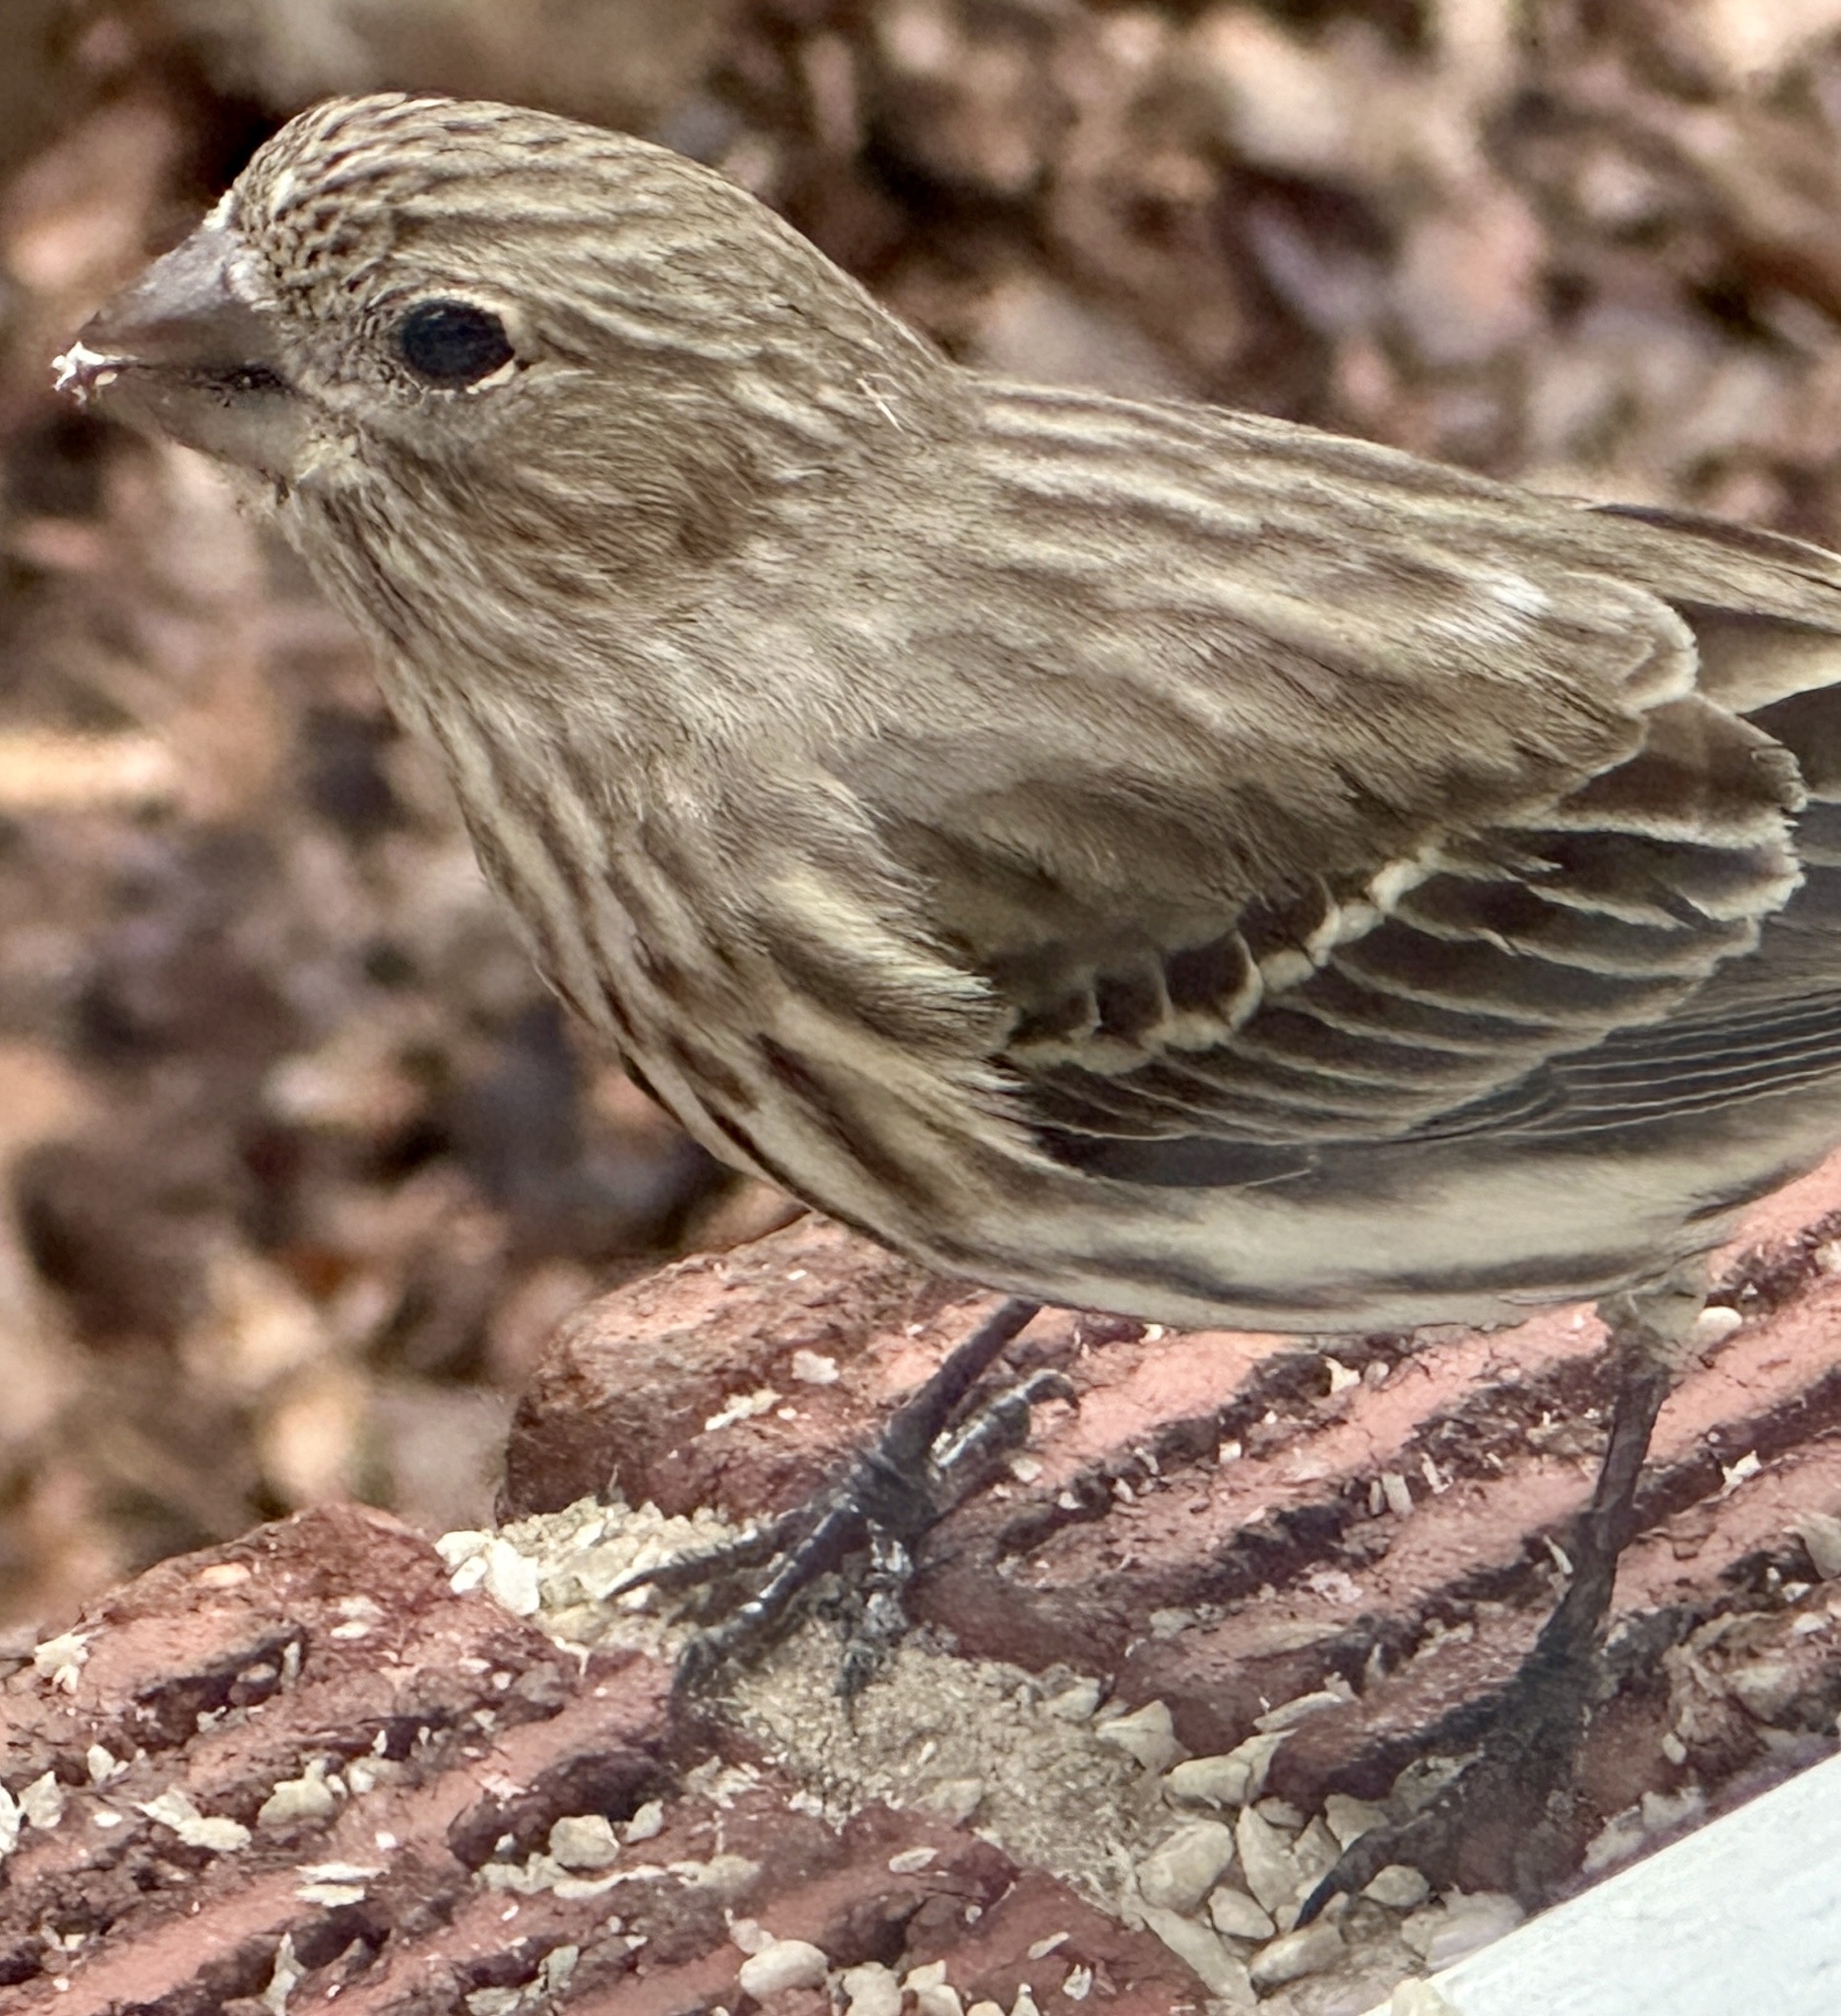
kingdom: Animalia
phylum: Chordata
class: Aves
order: Passeriformes
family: Fringillidae
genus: Haemorhous
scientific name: Haemorhous mexicanus
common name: House finch
